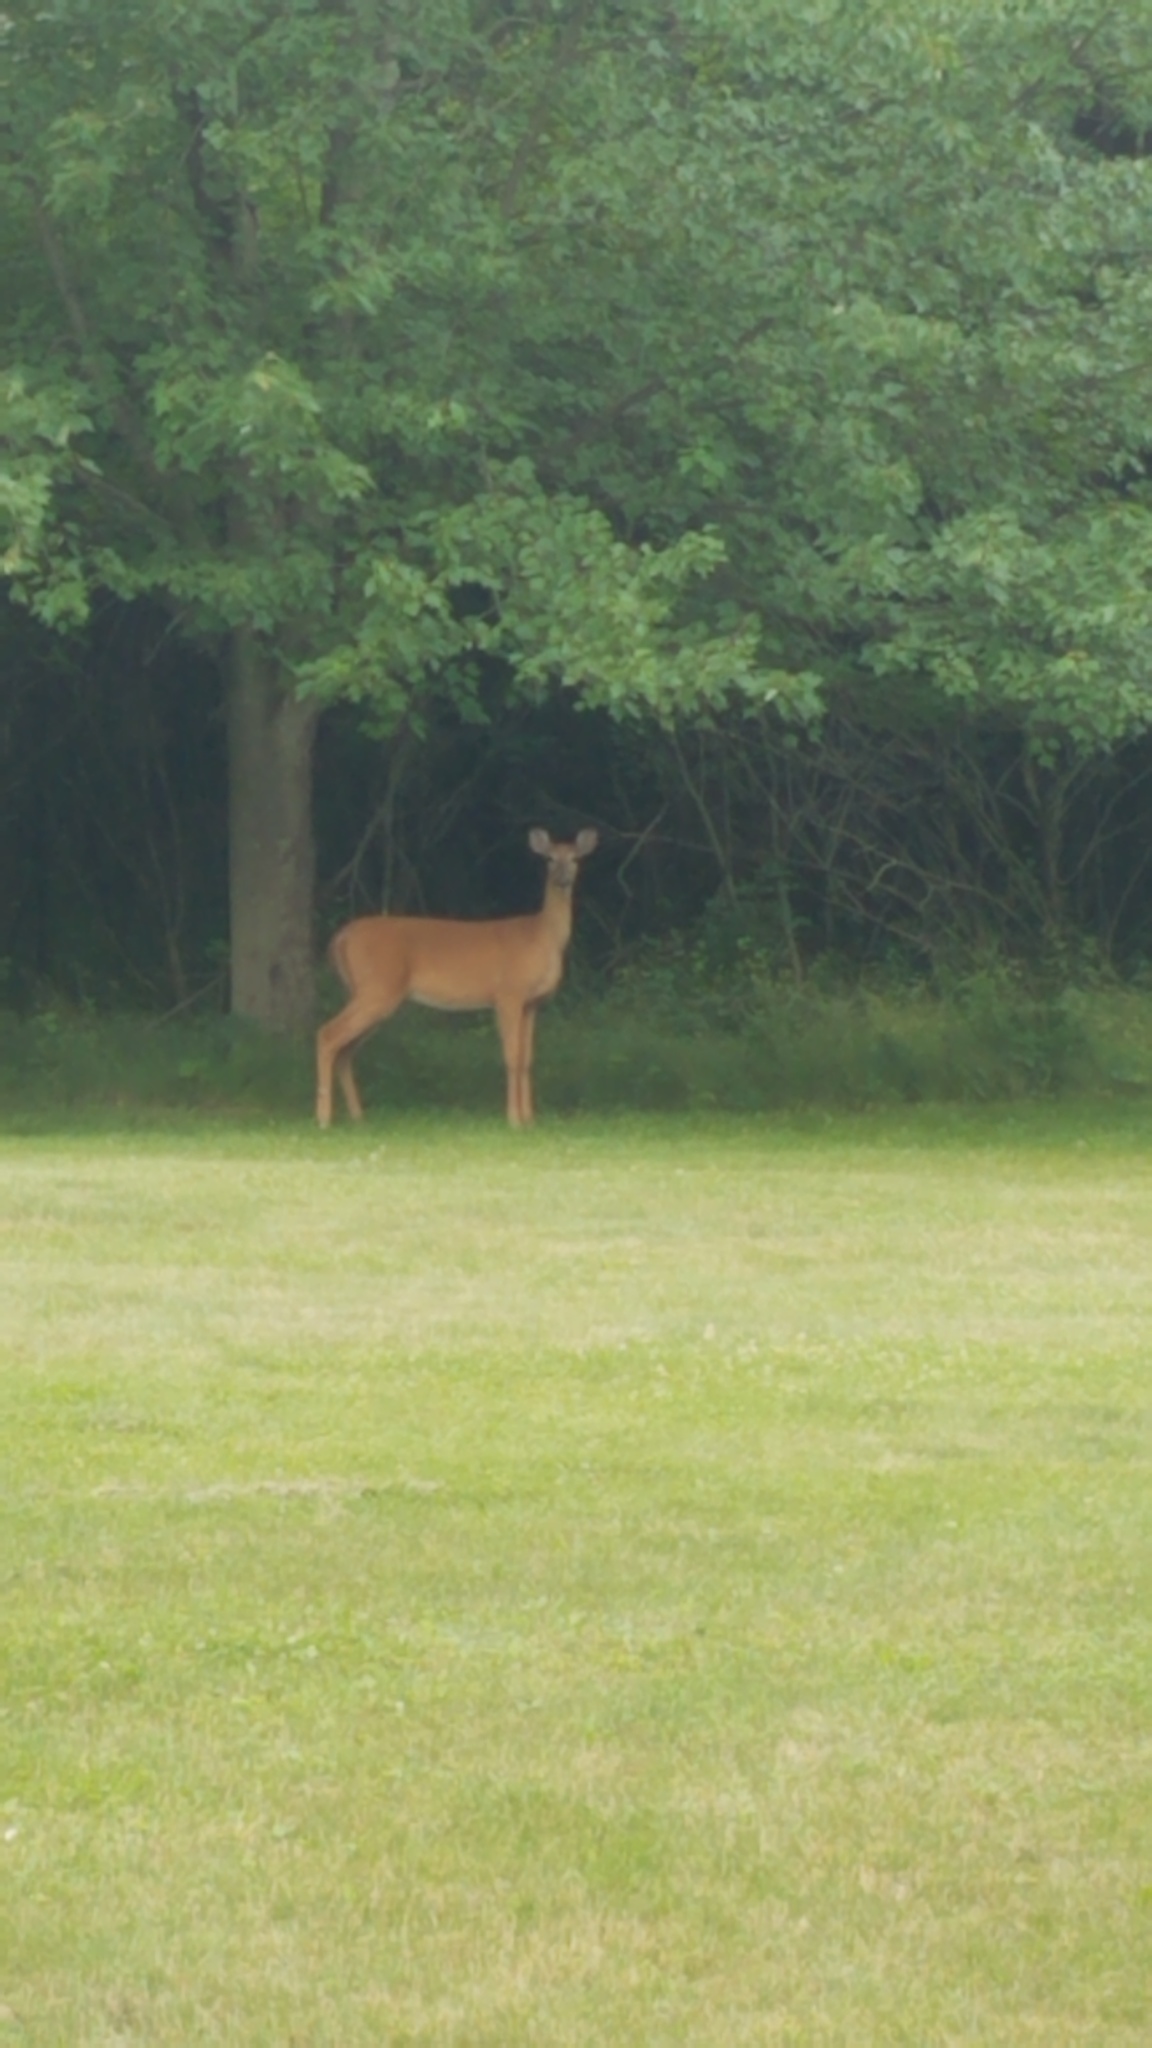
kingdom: Animalia
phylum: Chordata
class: Mammalia
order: Artiodactyla
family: Cervidae
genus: Odocoileus
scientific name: Odocoileus virginianus
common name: White-tailed deer
